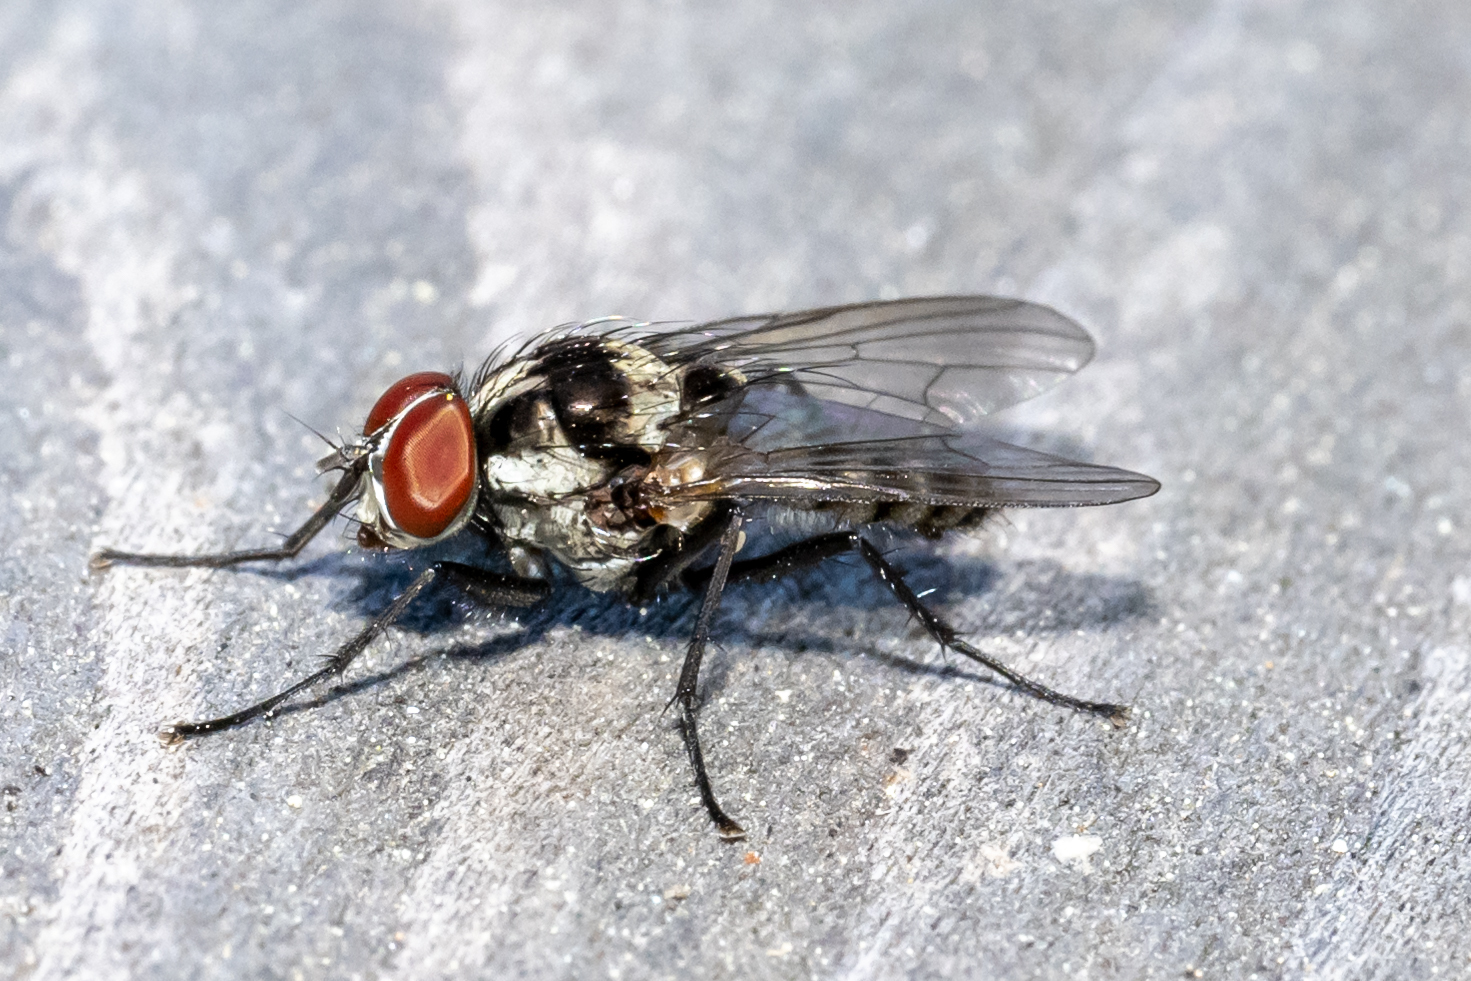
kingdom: Animalia
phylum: Arthropoda
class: Insecta
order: Diptera
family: Anthomyiidae
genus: Anthomyia
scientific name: Anthomyia oculifera
